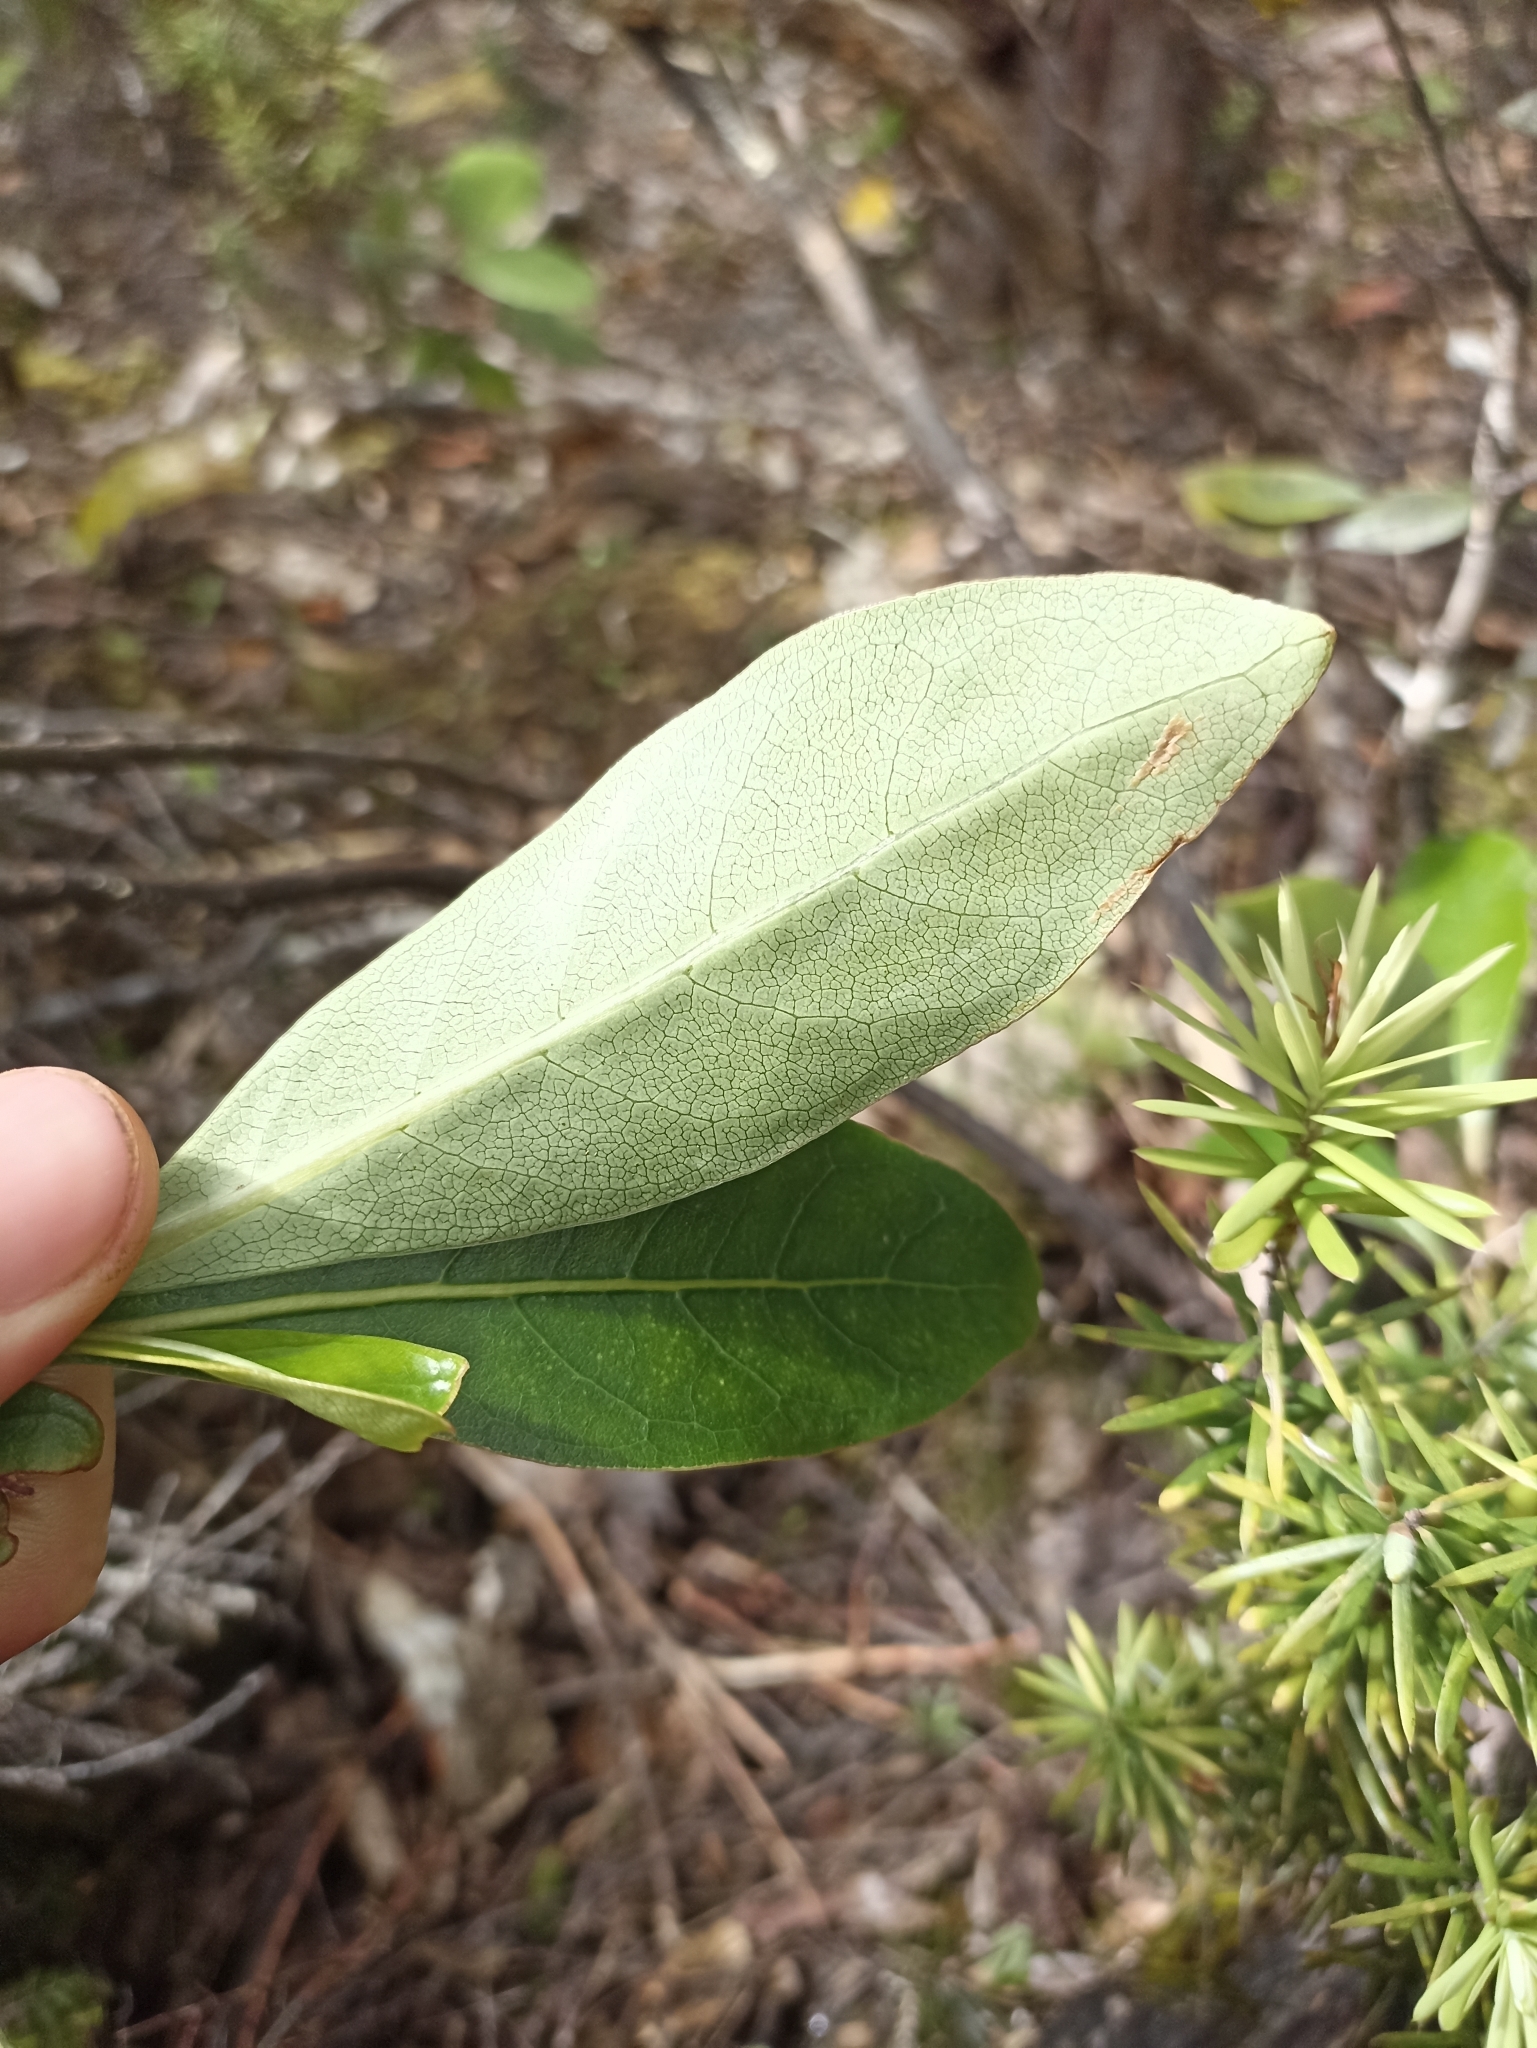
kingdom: Plantae
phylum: Tracheophyta
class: Magnoliopsida
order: Gentianales
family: Rubiaceae
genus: Coprosma
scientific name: Coprosma lucida
